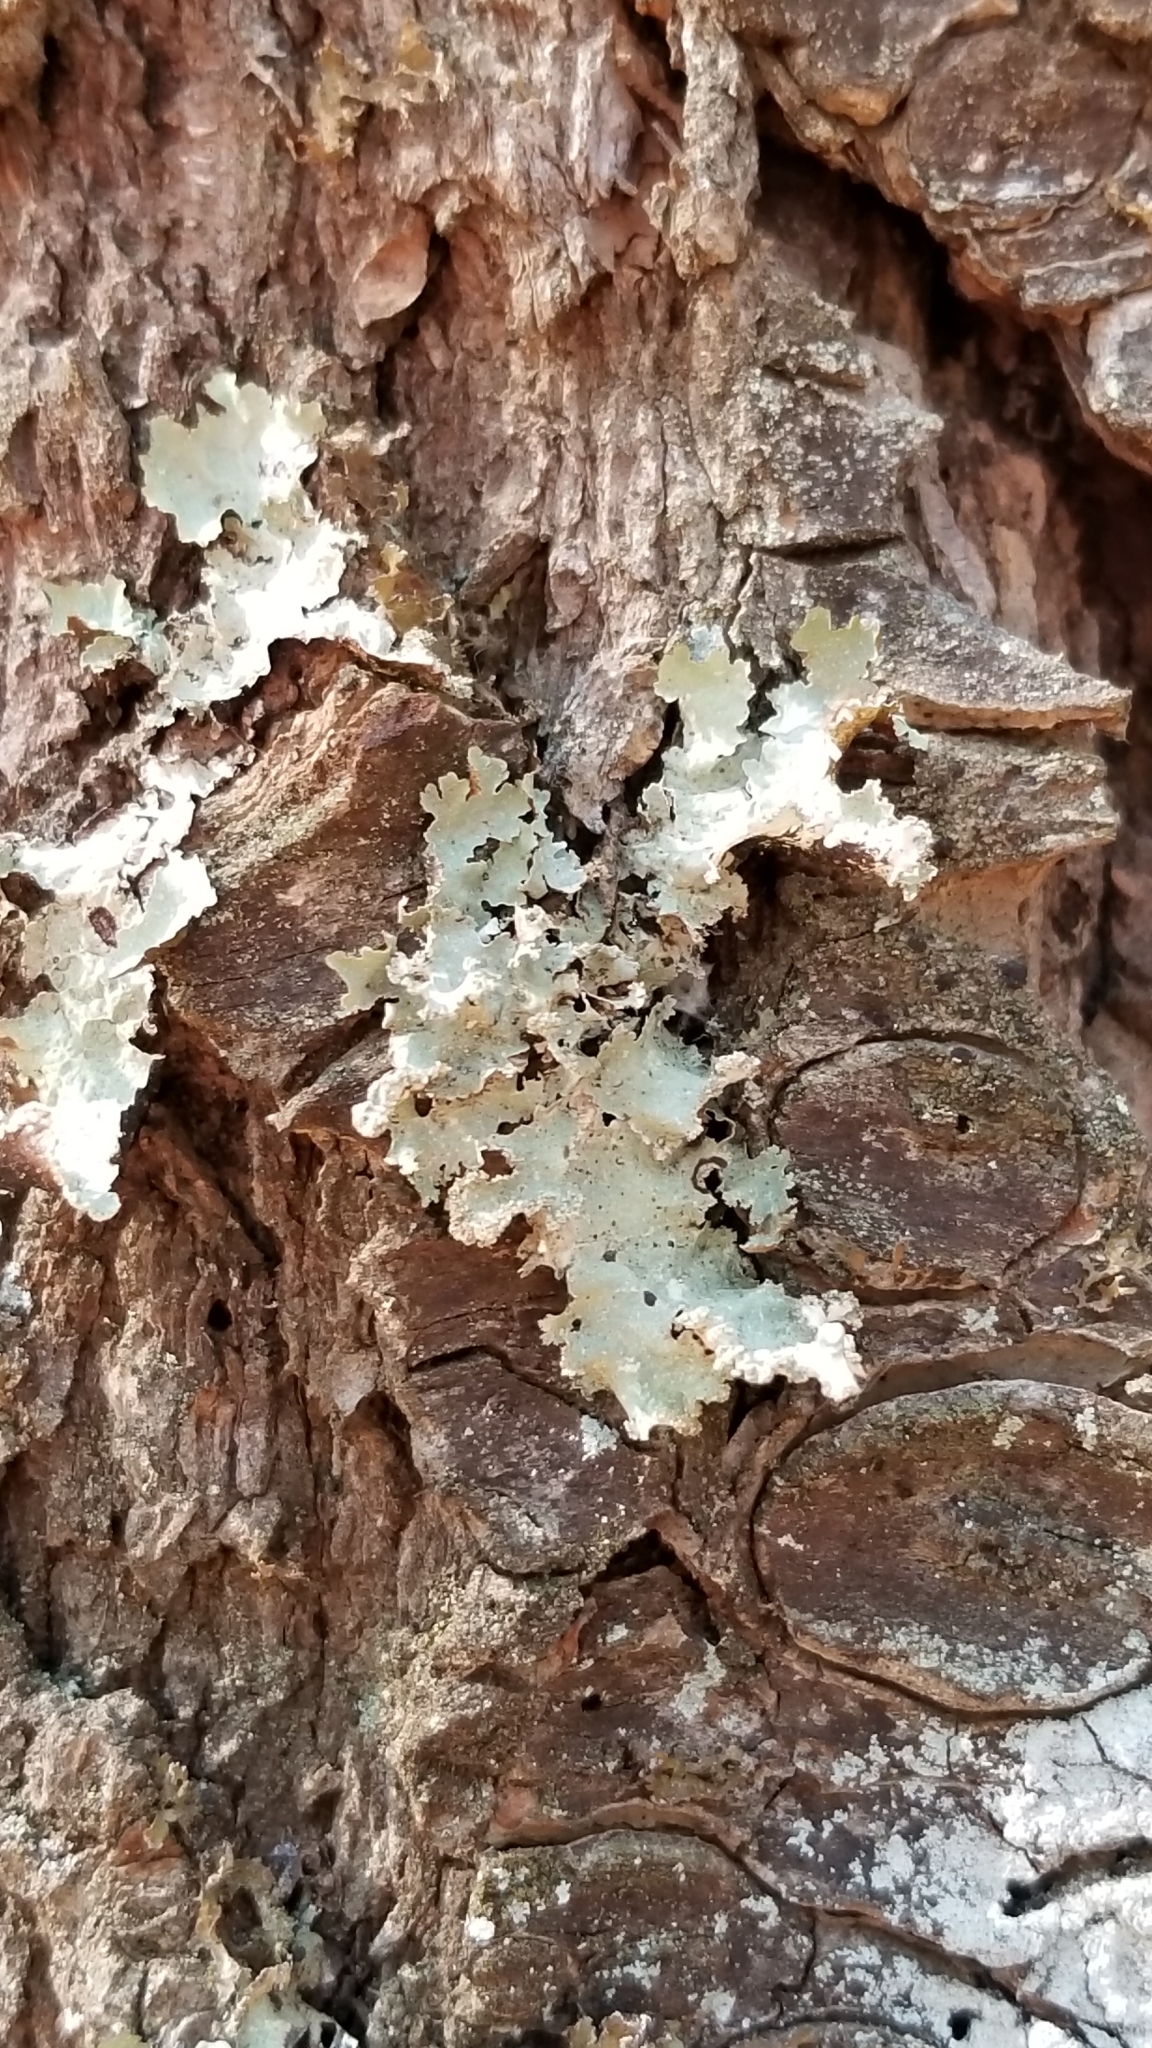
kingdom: Fungi
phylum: Ascomycota
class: Lecanoromycetes
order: Lecanorales
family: Parmeliaceae
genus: Platismatia
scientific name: Platismatia glauca
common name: Varied rag lichen
